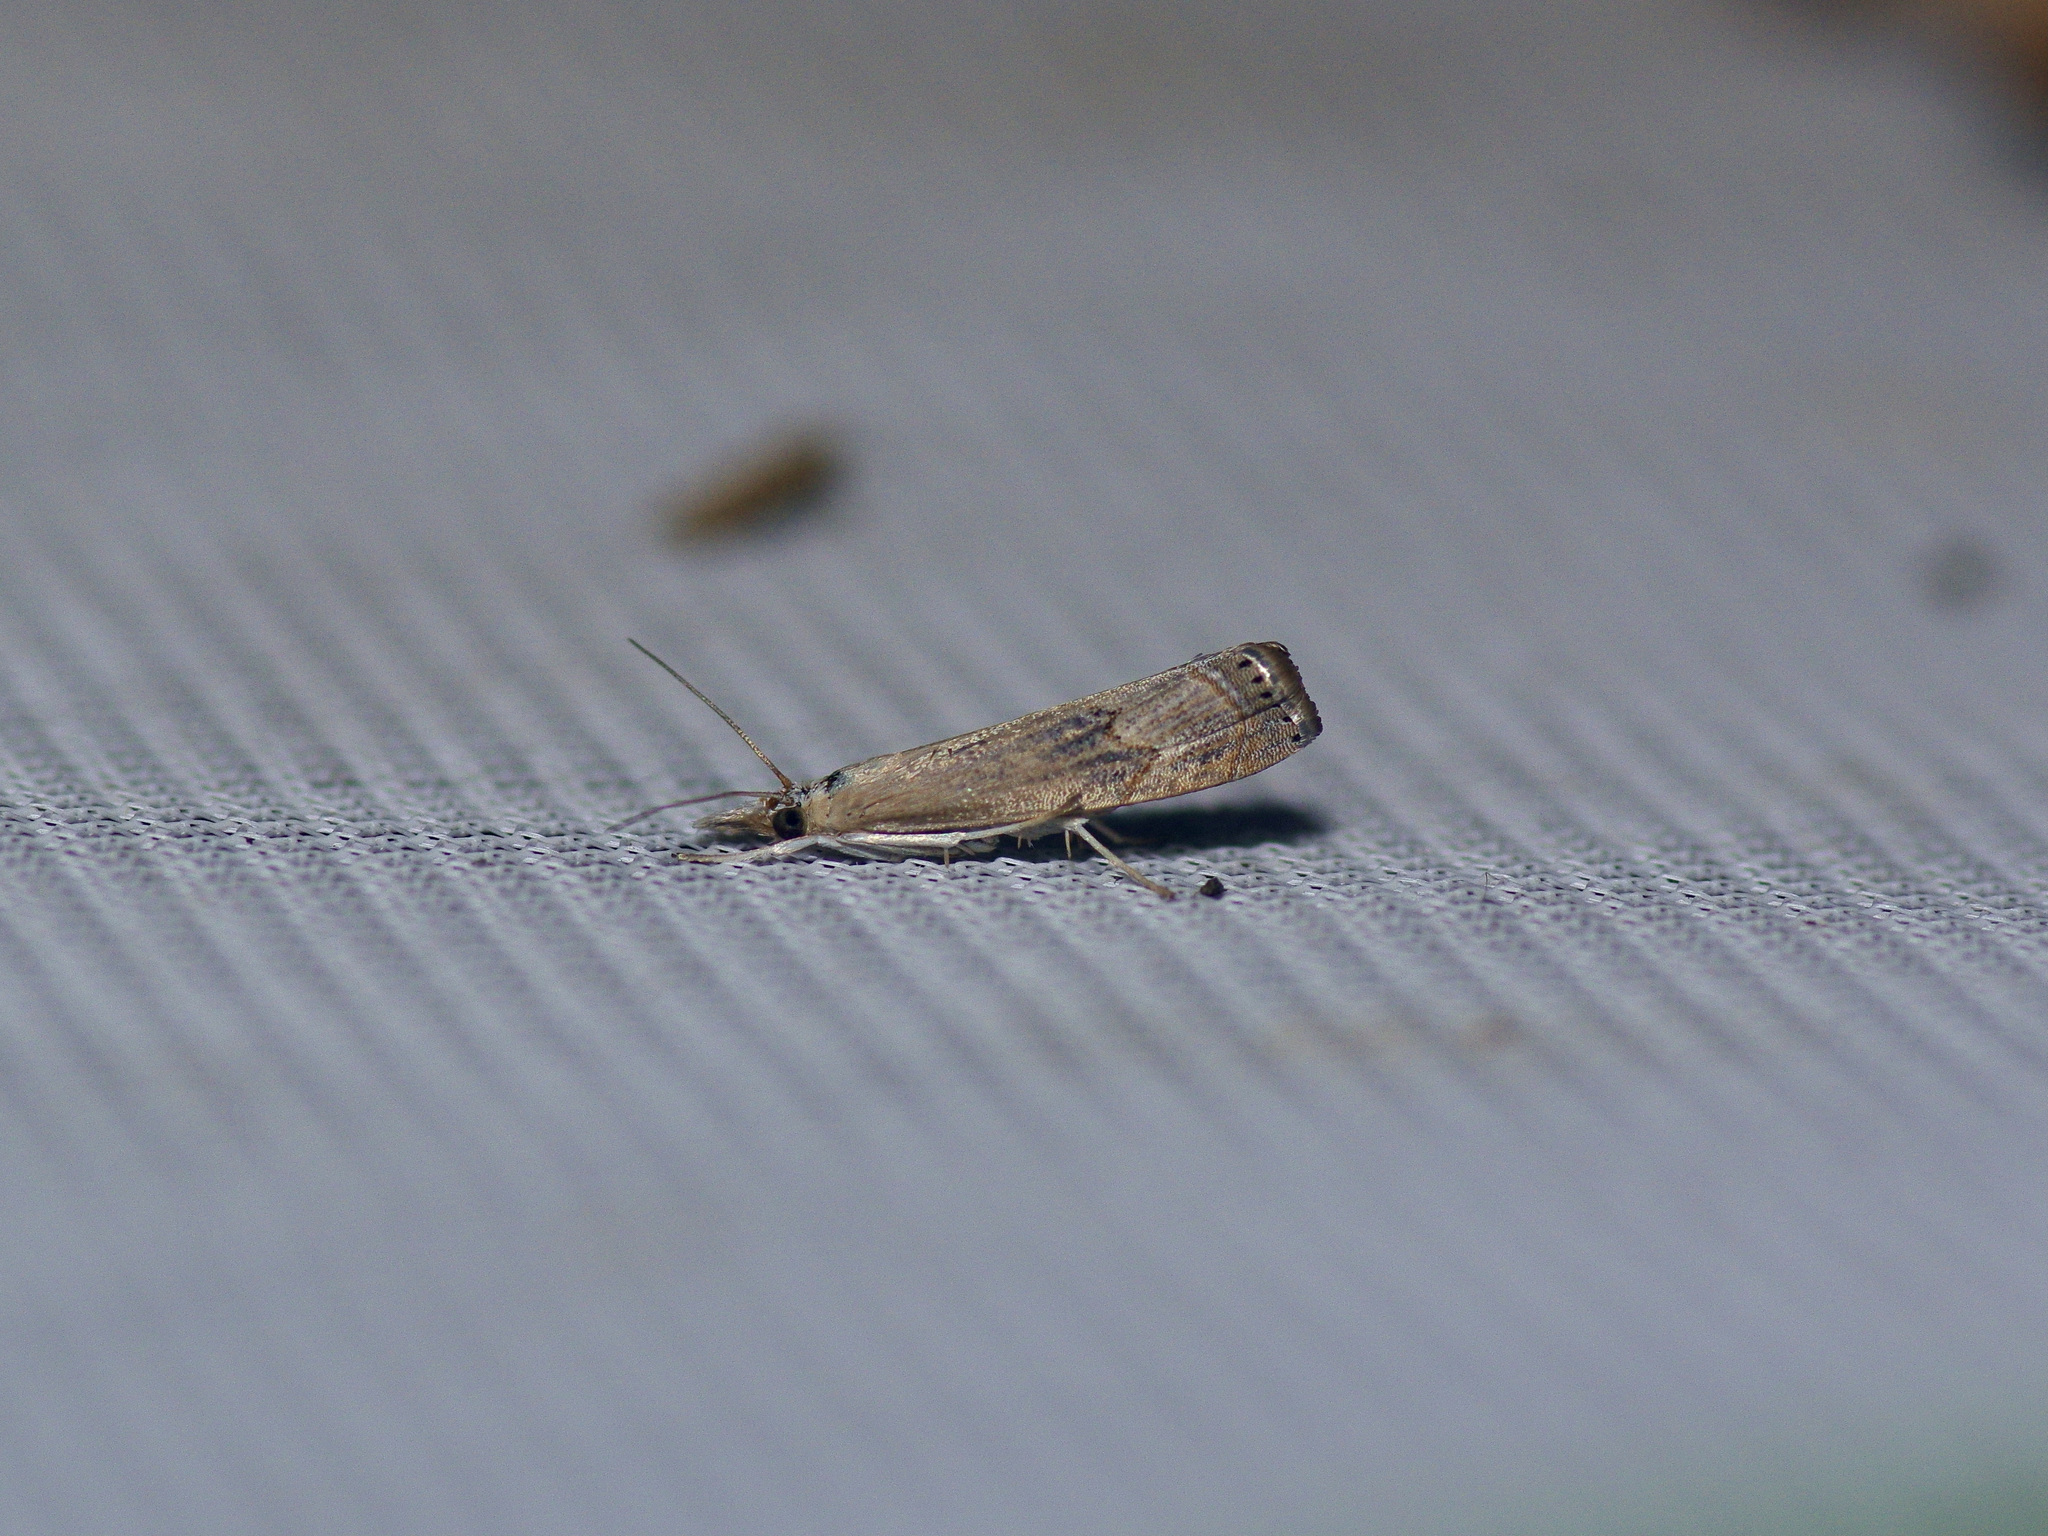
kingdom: Animalia
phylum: Arthropoda
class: Insecta
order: Lepidoptera
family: Crambidae
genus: Parapediasia
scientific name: Parapediasia teterellus
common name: Bluegrass webworm moth
